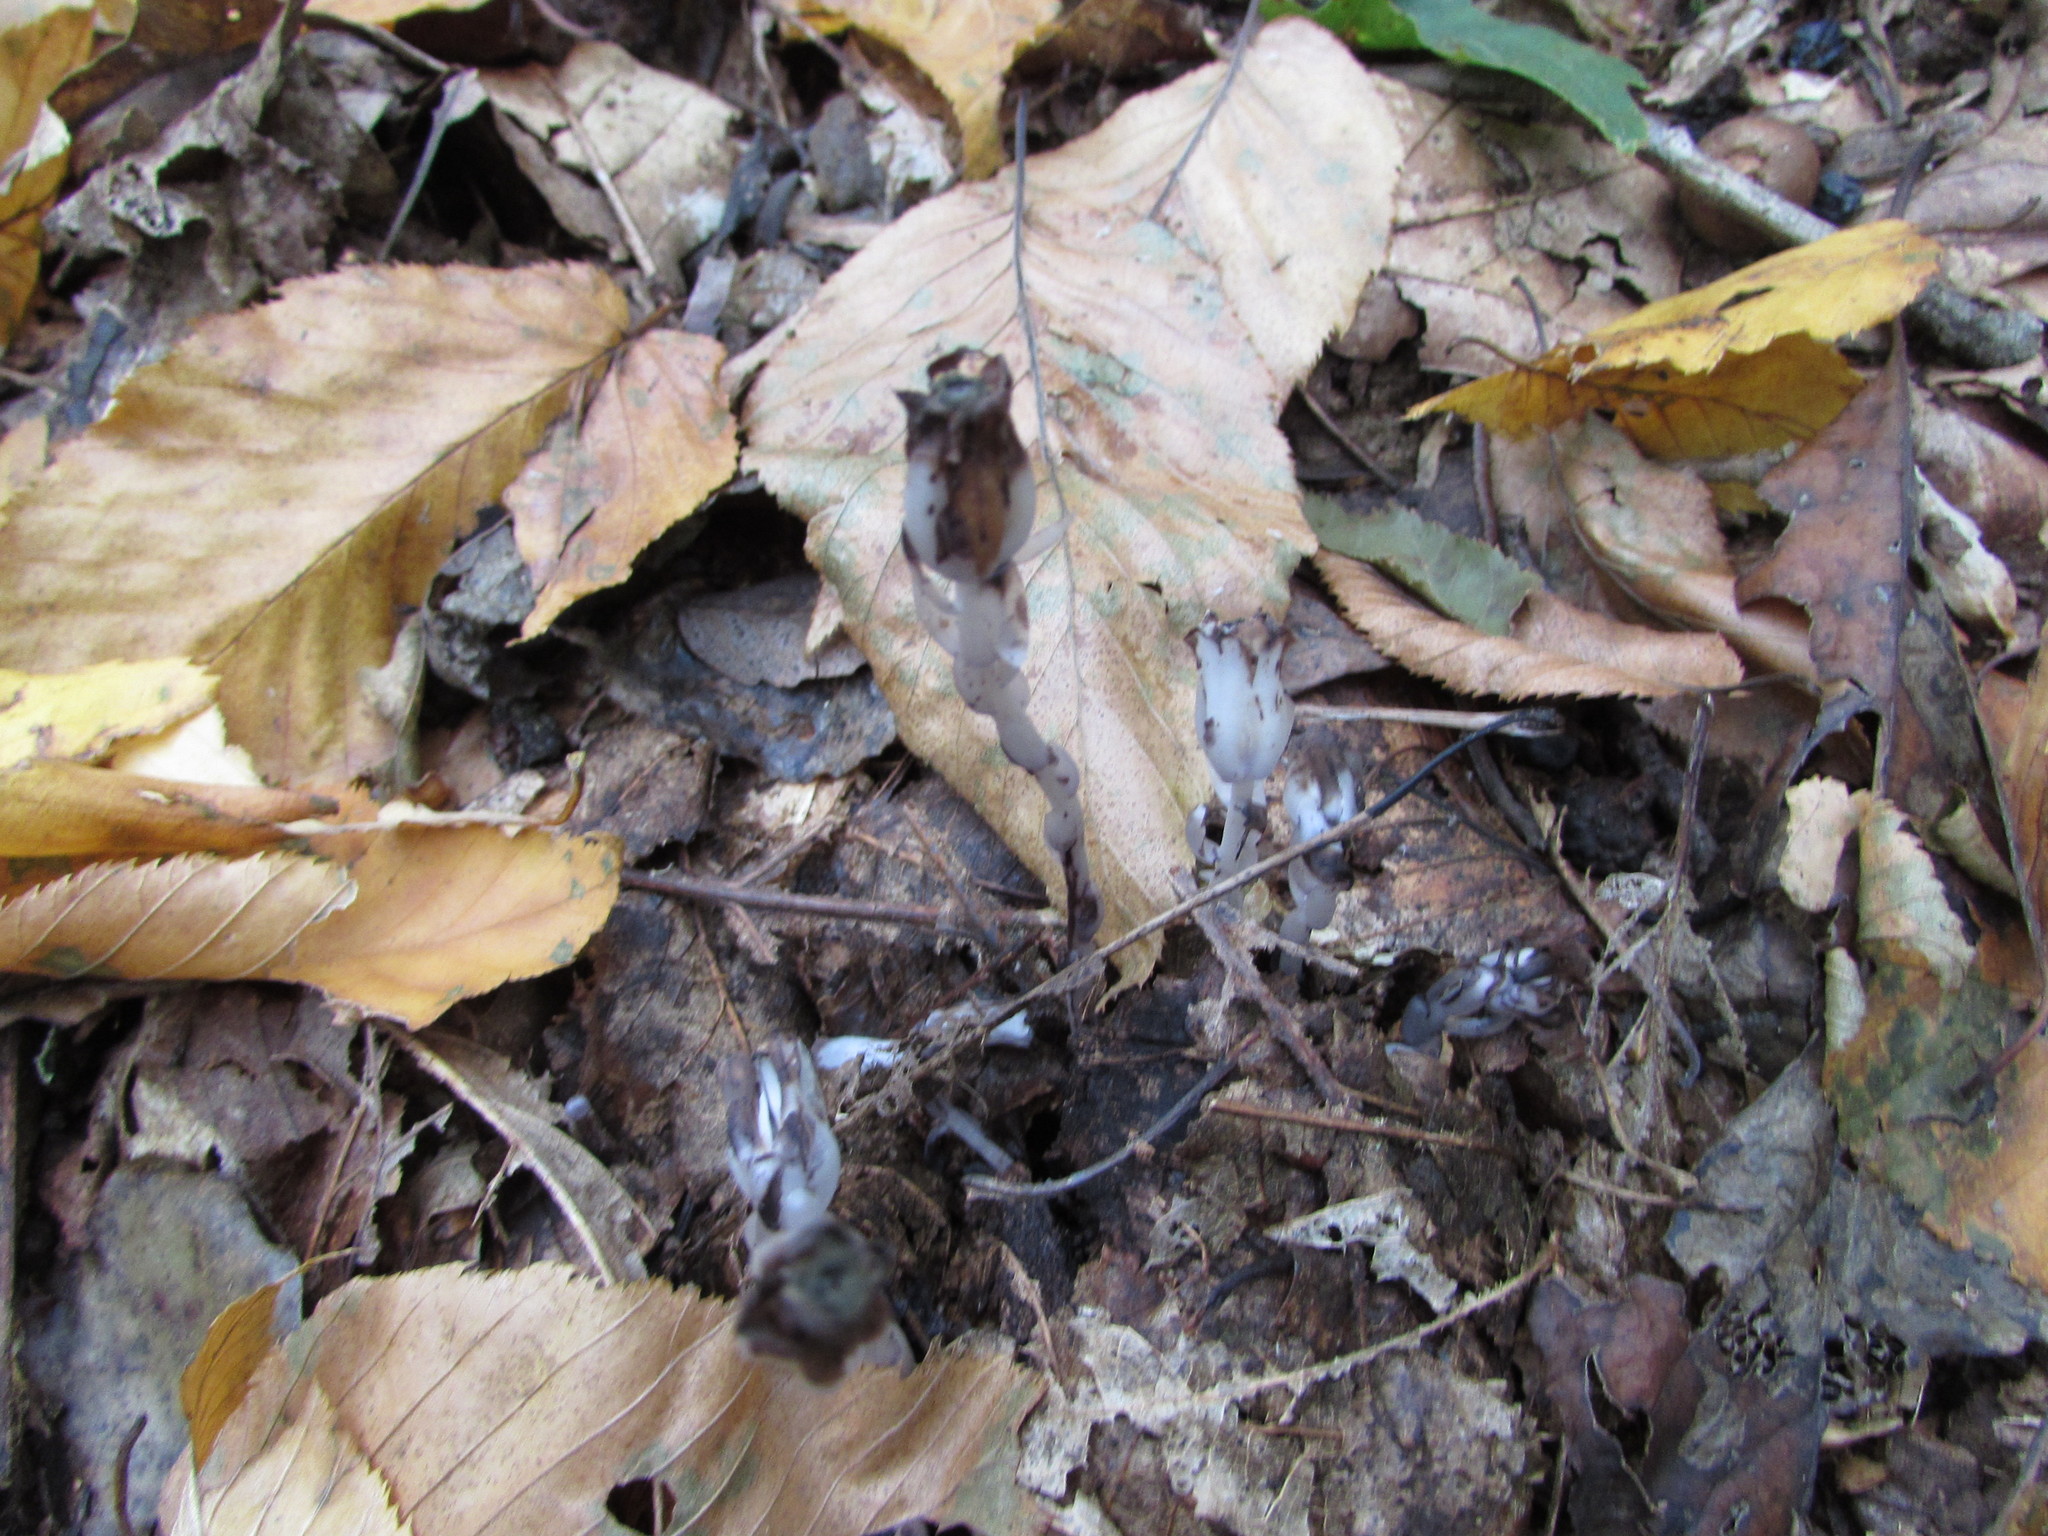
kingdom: Plantae
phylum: Tracheophyta
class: Magnoliopsida
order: Ericales
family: Ericaceae
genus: Monotropa
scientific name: Monotropa uniflora
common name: Convulsion root
